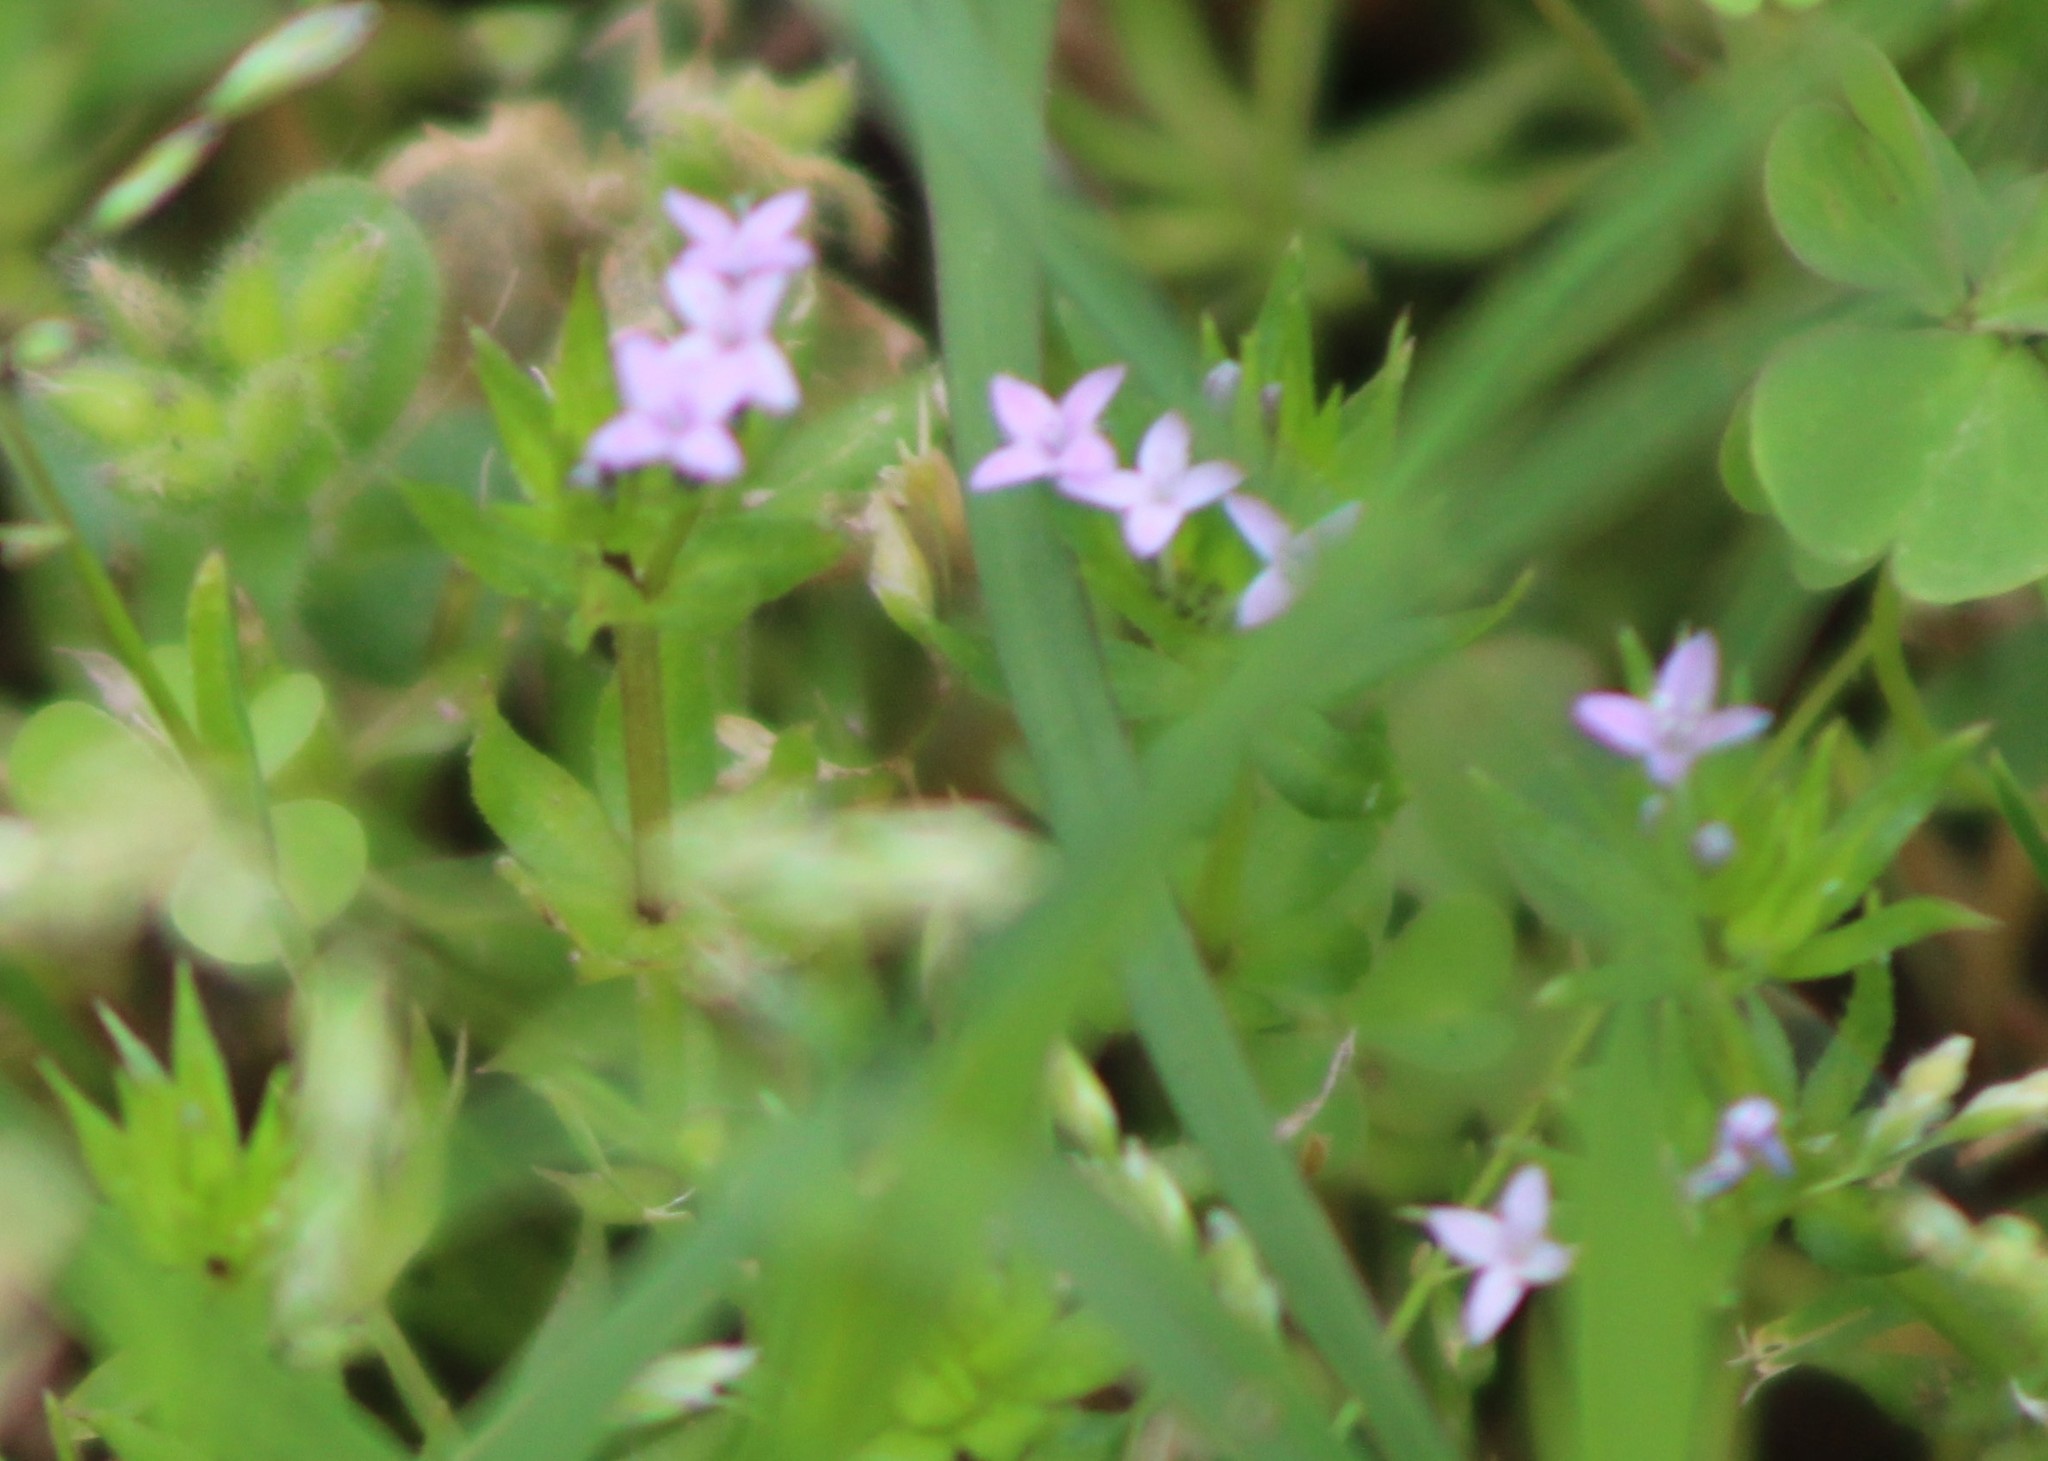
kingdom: Plantae
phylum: Tracheophyta
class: Magnoliopsida
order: Gentianales
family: Rubiaceae
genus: Sherardia
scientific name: Sherardia arvensis
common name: Field madder
